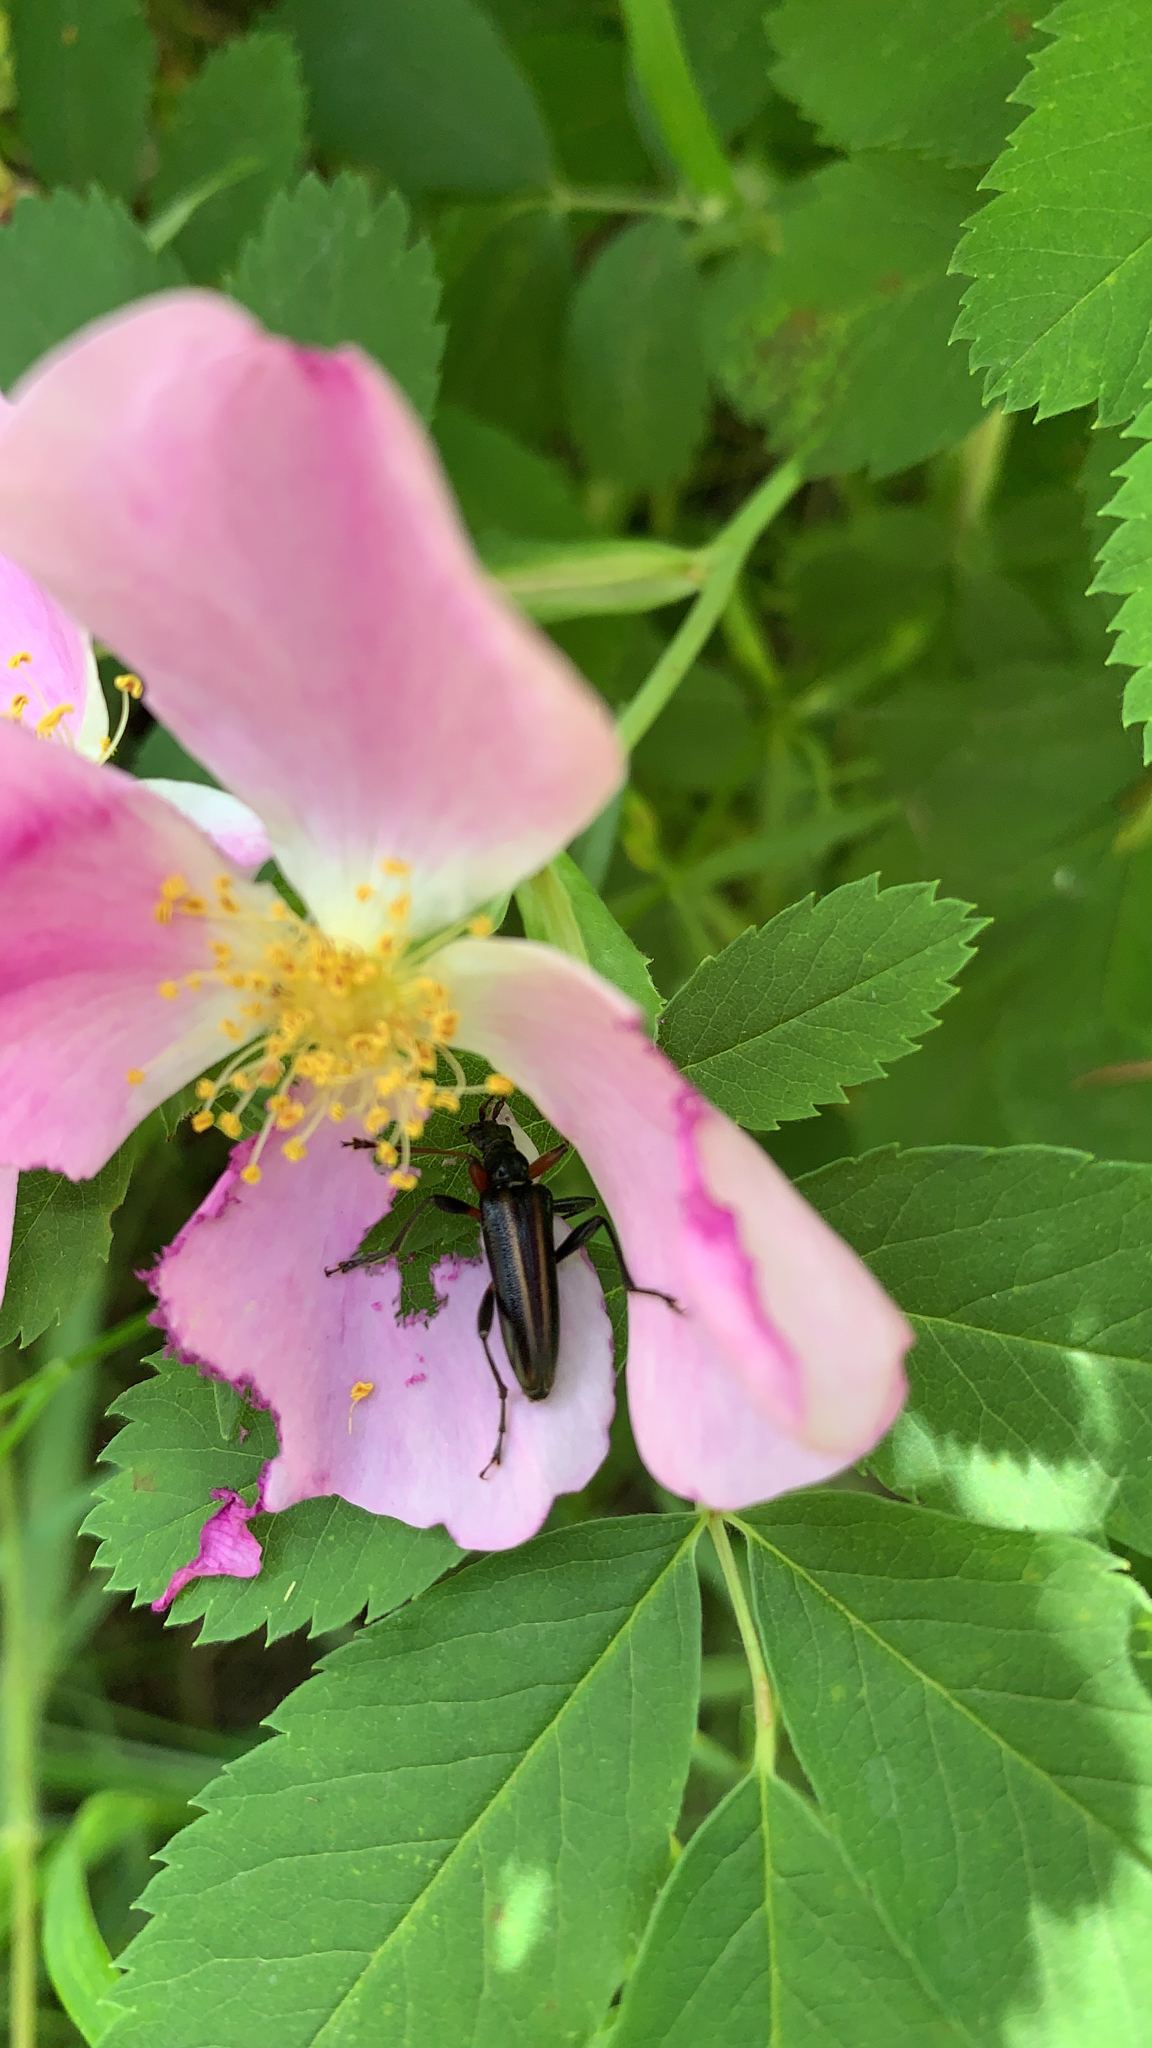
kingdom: Animalia
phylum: Arthropoda
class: Insecta
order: Coleoptera
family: Cerambycidae
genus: Cortodera
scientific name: Cortodera longicornis
